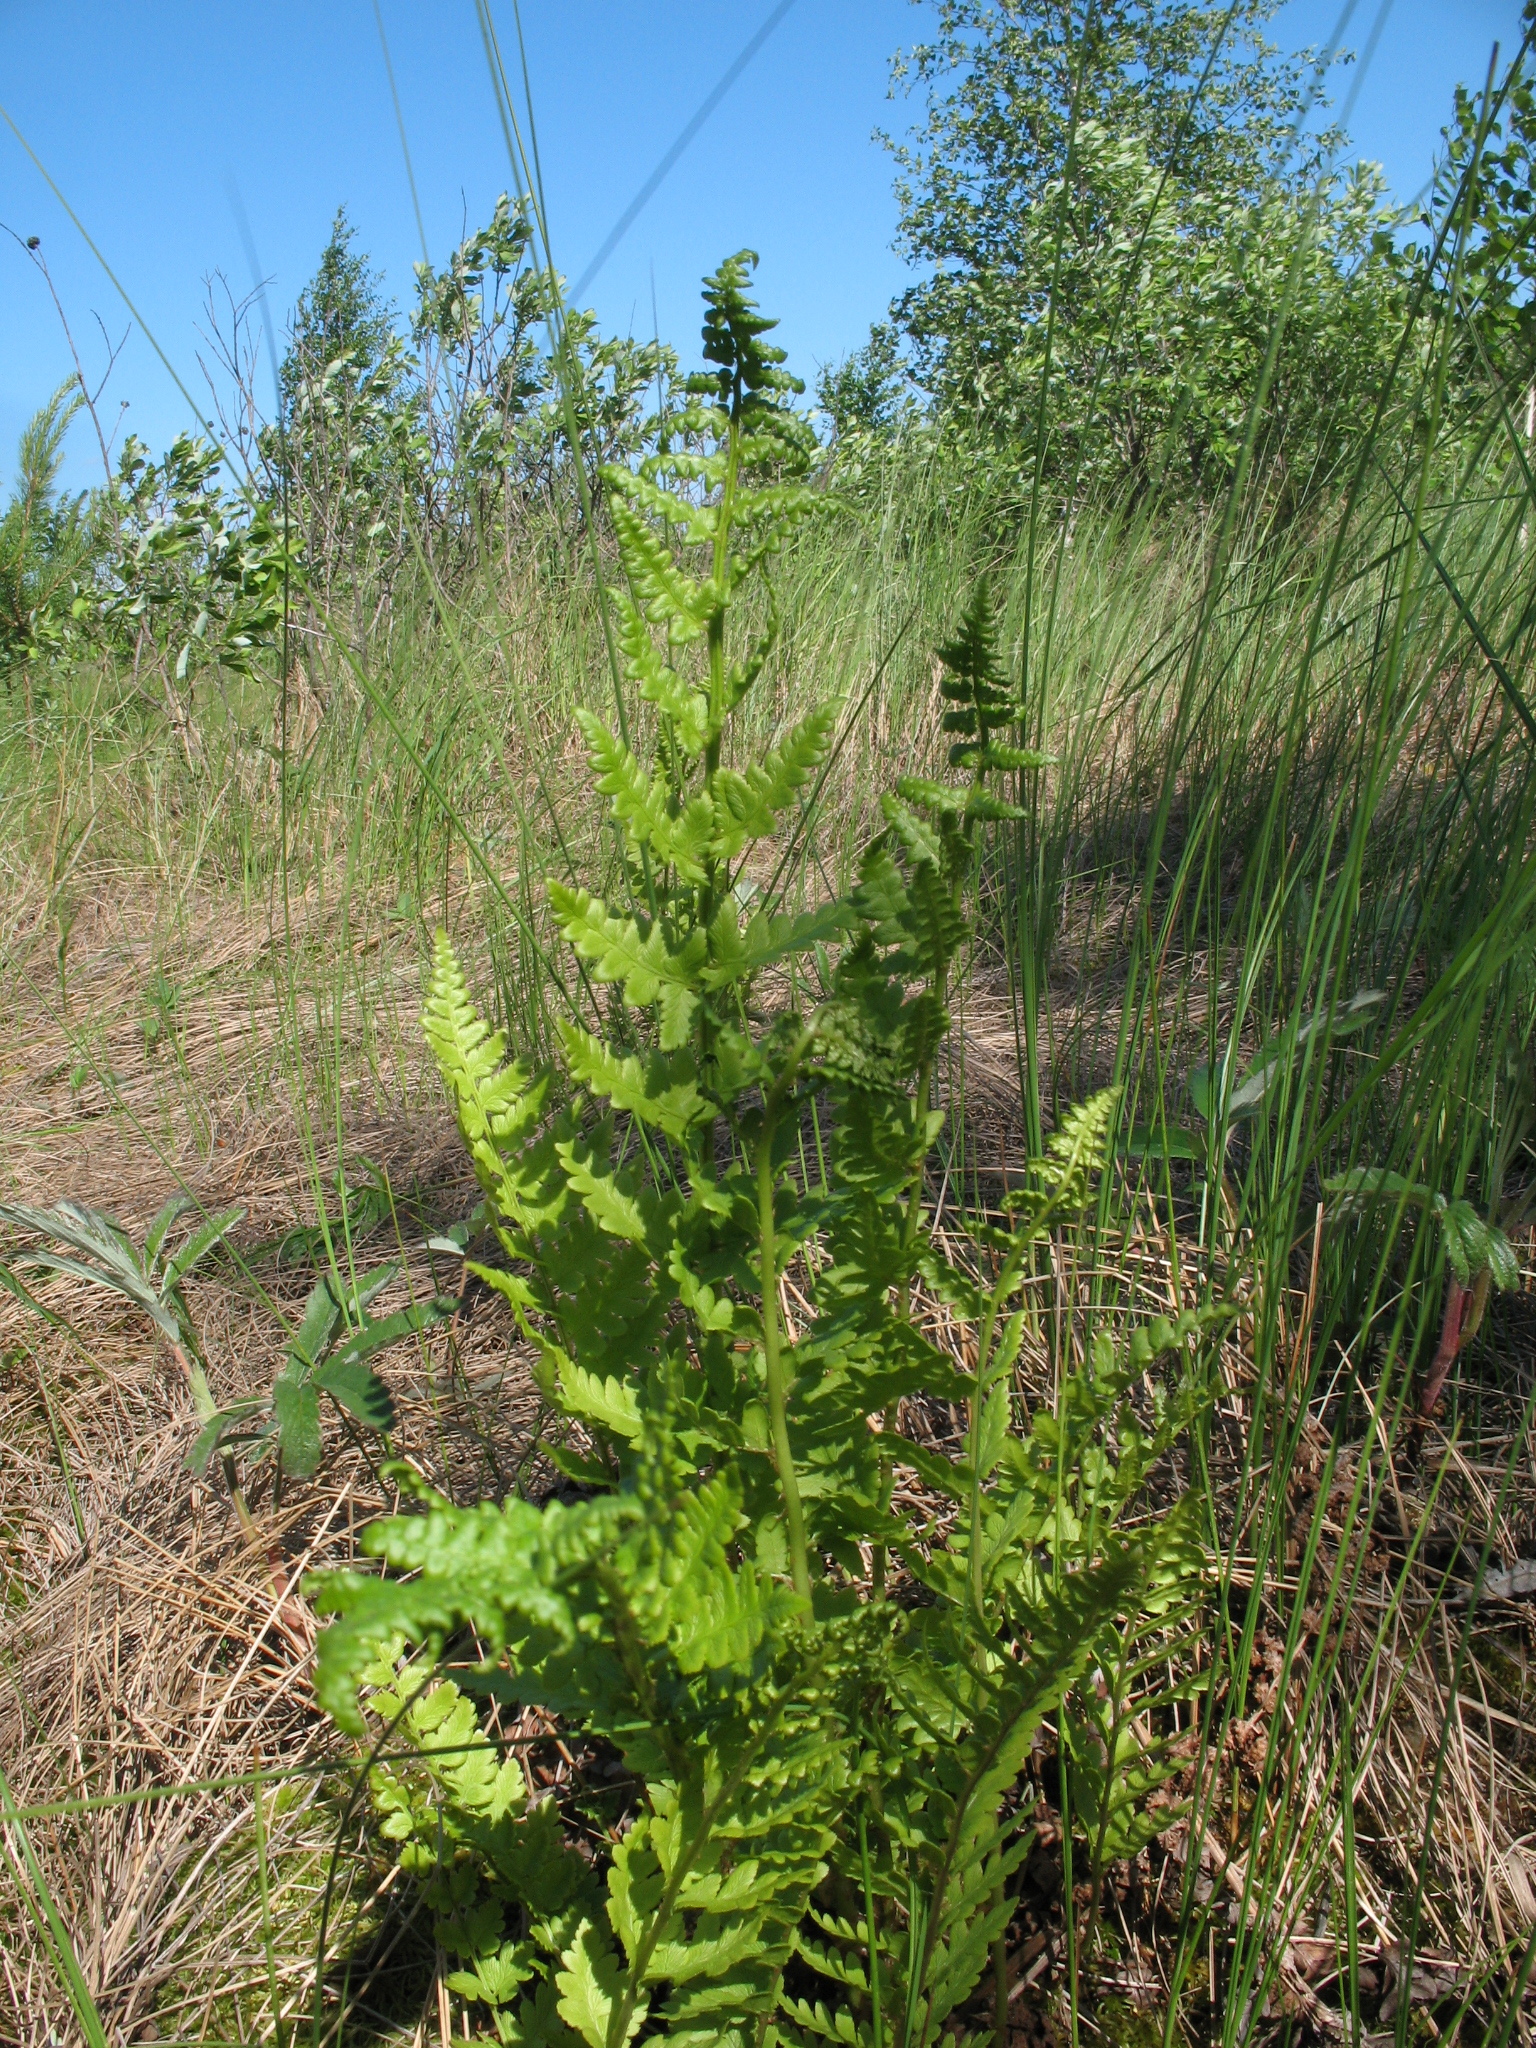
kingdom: Plantae
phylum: Tracheophyta
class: Polypodiopsida
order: Polypodiales
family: Thelypteridaceae
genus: Thelypteris
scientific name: Thelypteris palustris
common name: Marsh fern
